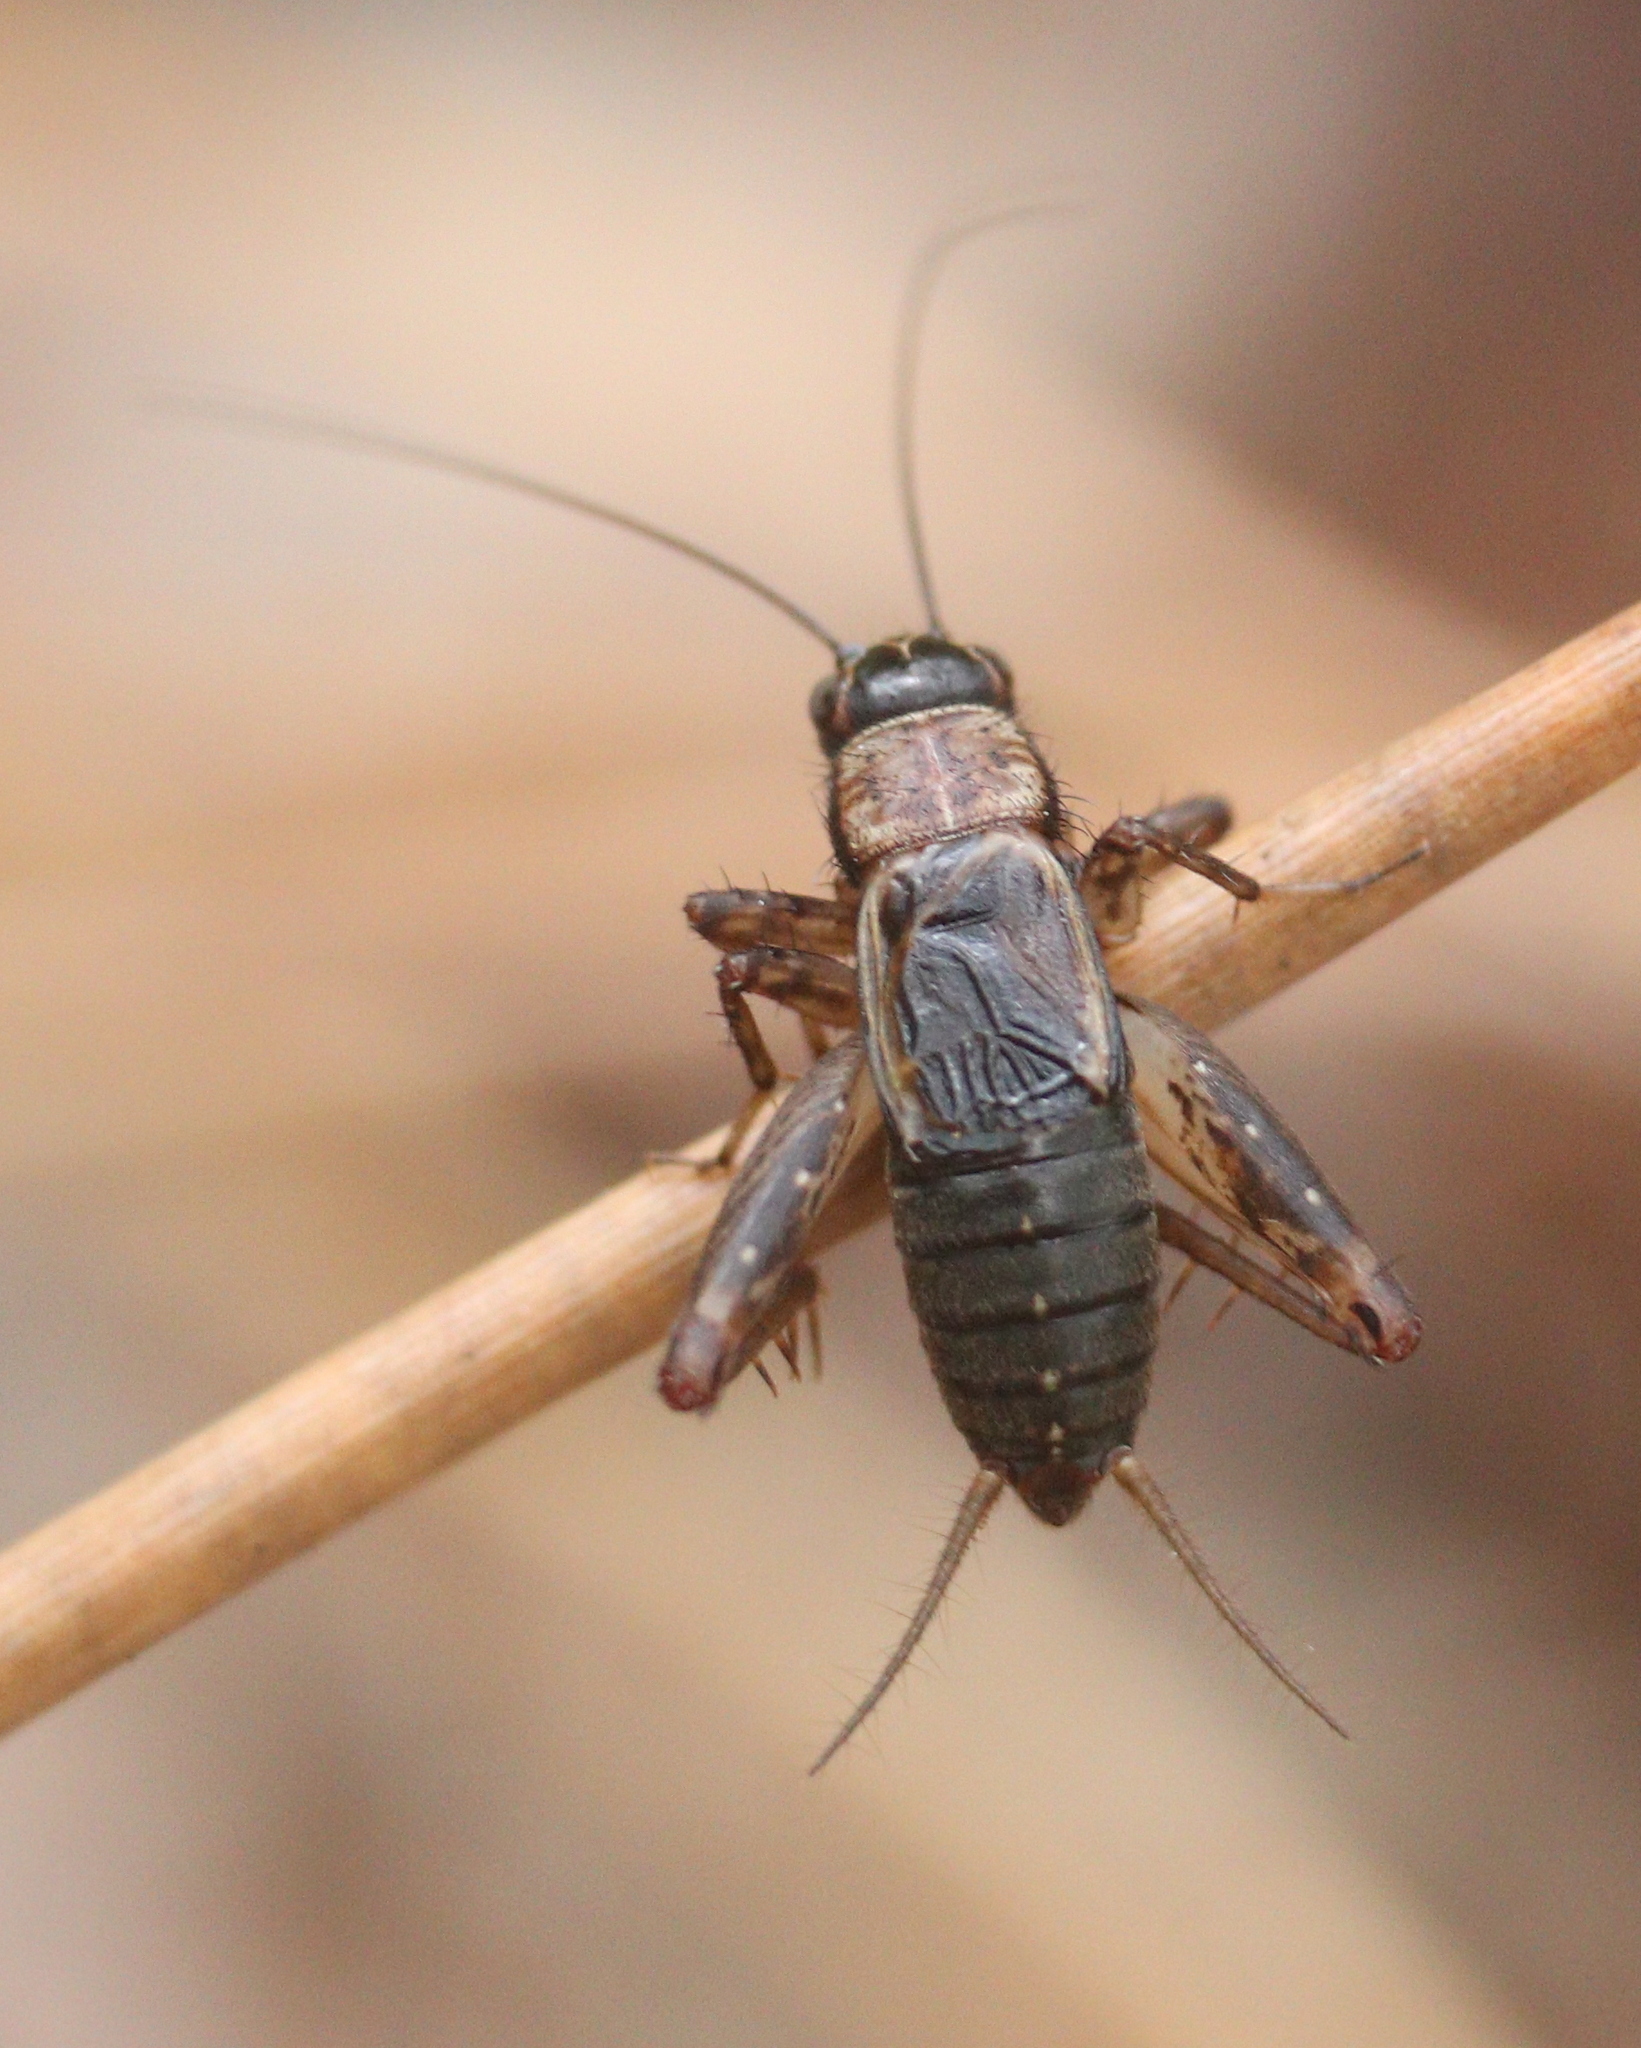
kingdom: Animalia
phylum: Arthropoda
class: Insecta
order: Orthoptera
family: Trigonidiidae
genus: Nemobius
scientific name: Nemobius sylvestris
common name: Wood-cricket
